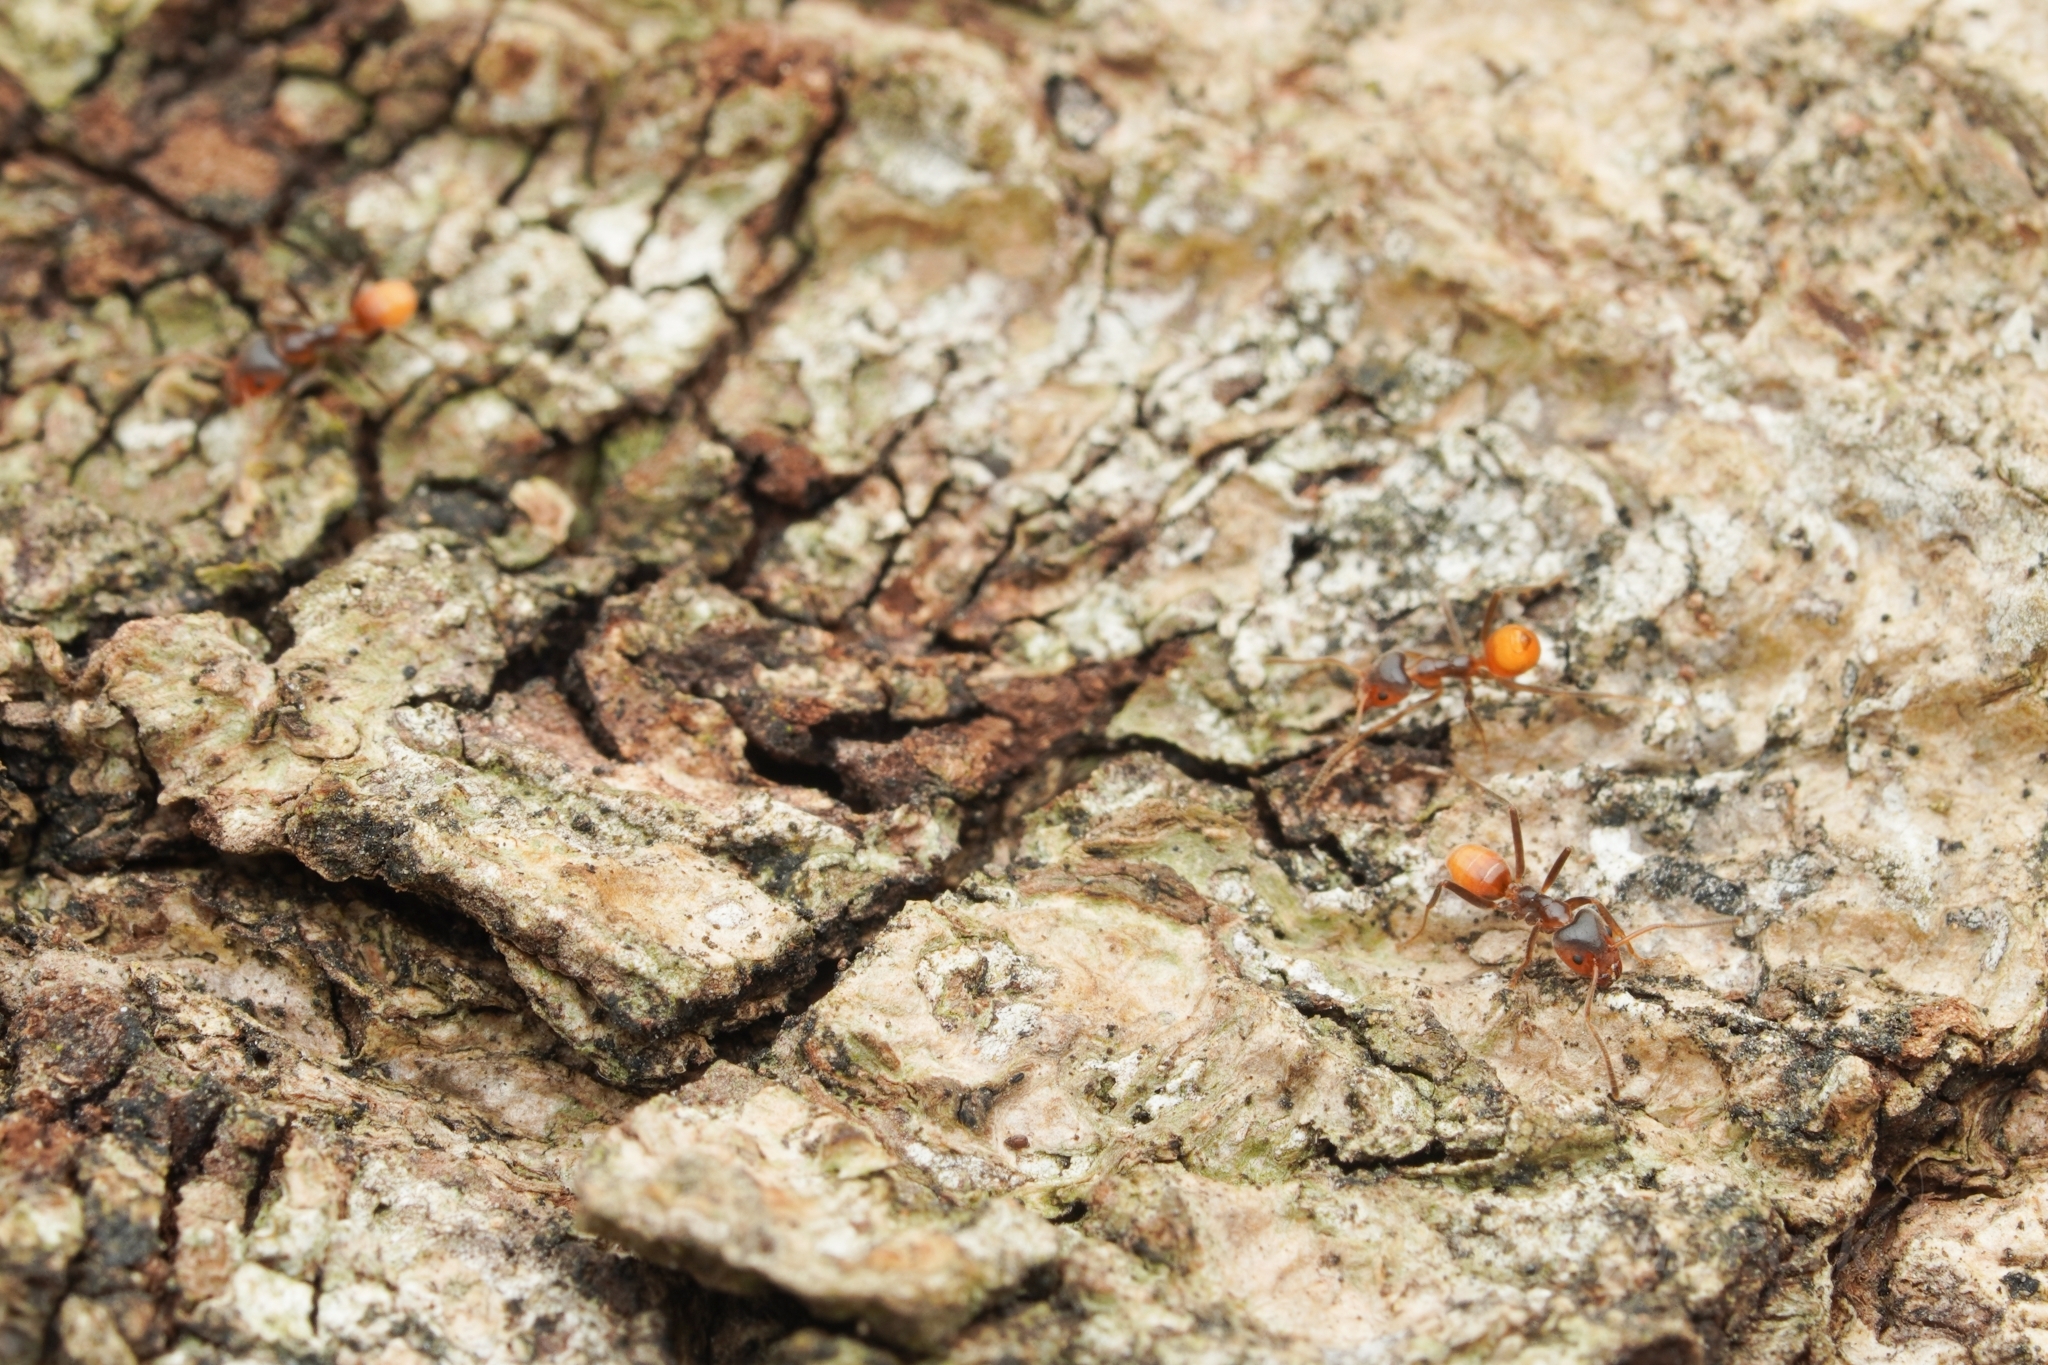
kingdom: Animalia
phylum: Arthropoda
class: Insecta
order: Hymenoptera
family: Formicidae
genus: Azteca
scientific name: Azteca delpini
